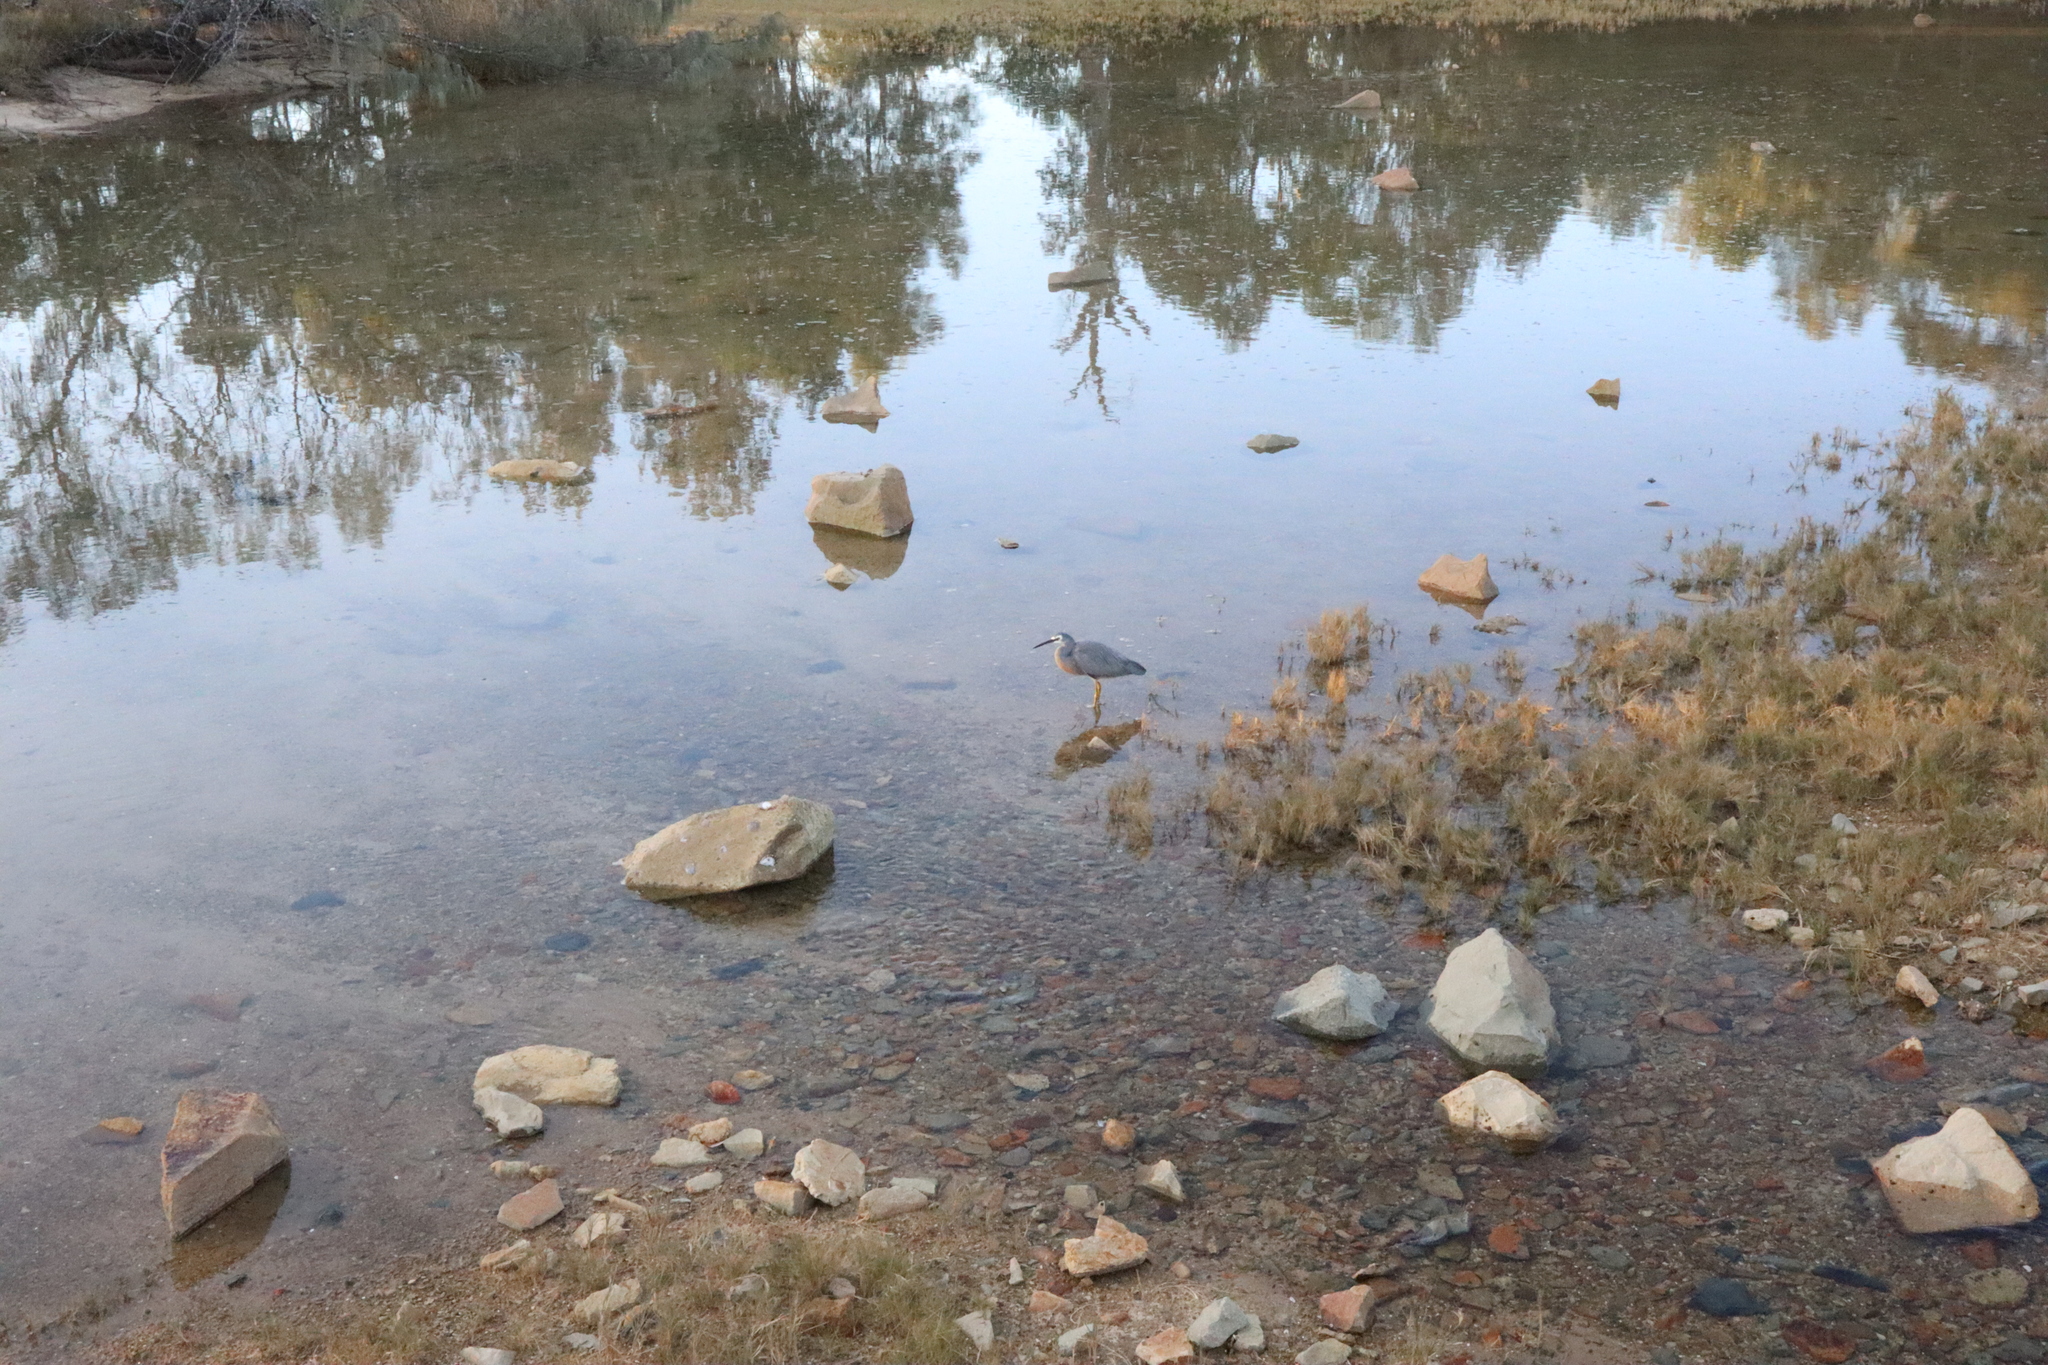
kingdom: Animalia
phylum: Chordata
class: Aves
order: Pelecaniformes
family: Ardeidae
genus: Egretta
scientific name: Egretta novaehollandiae
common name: White-faced heron
